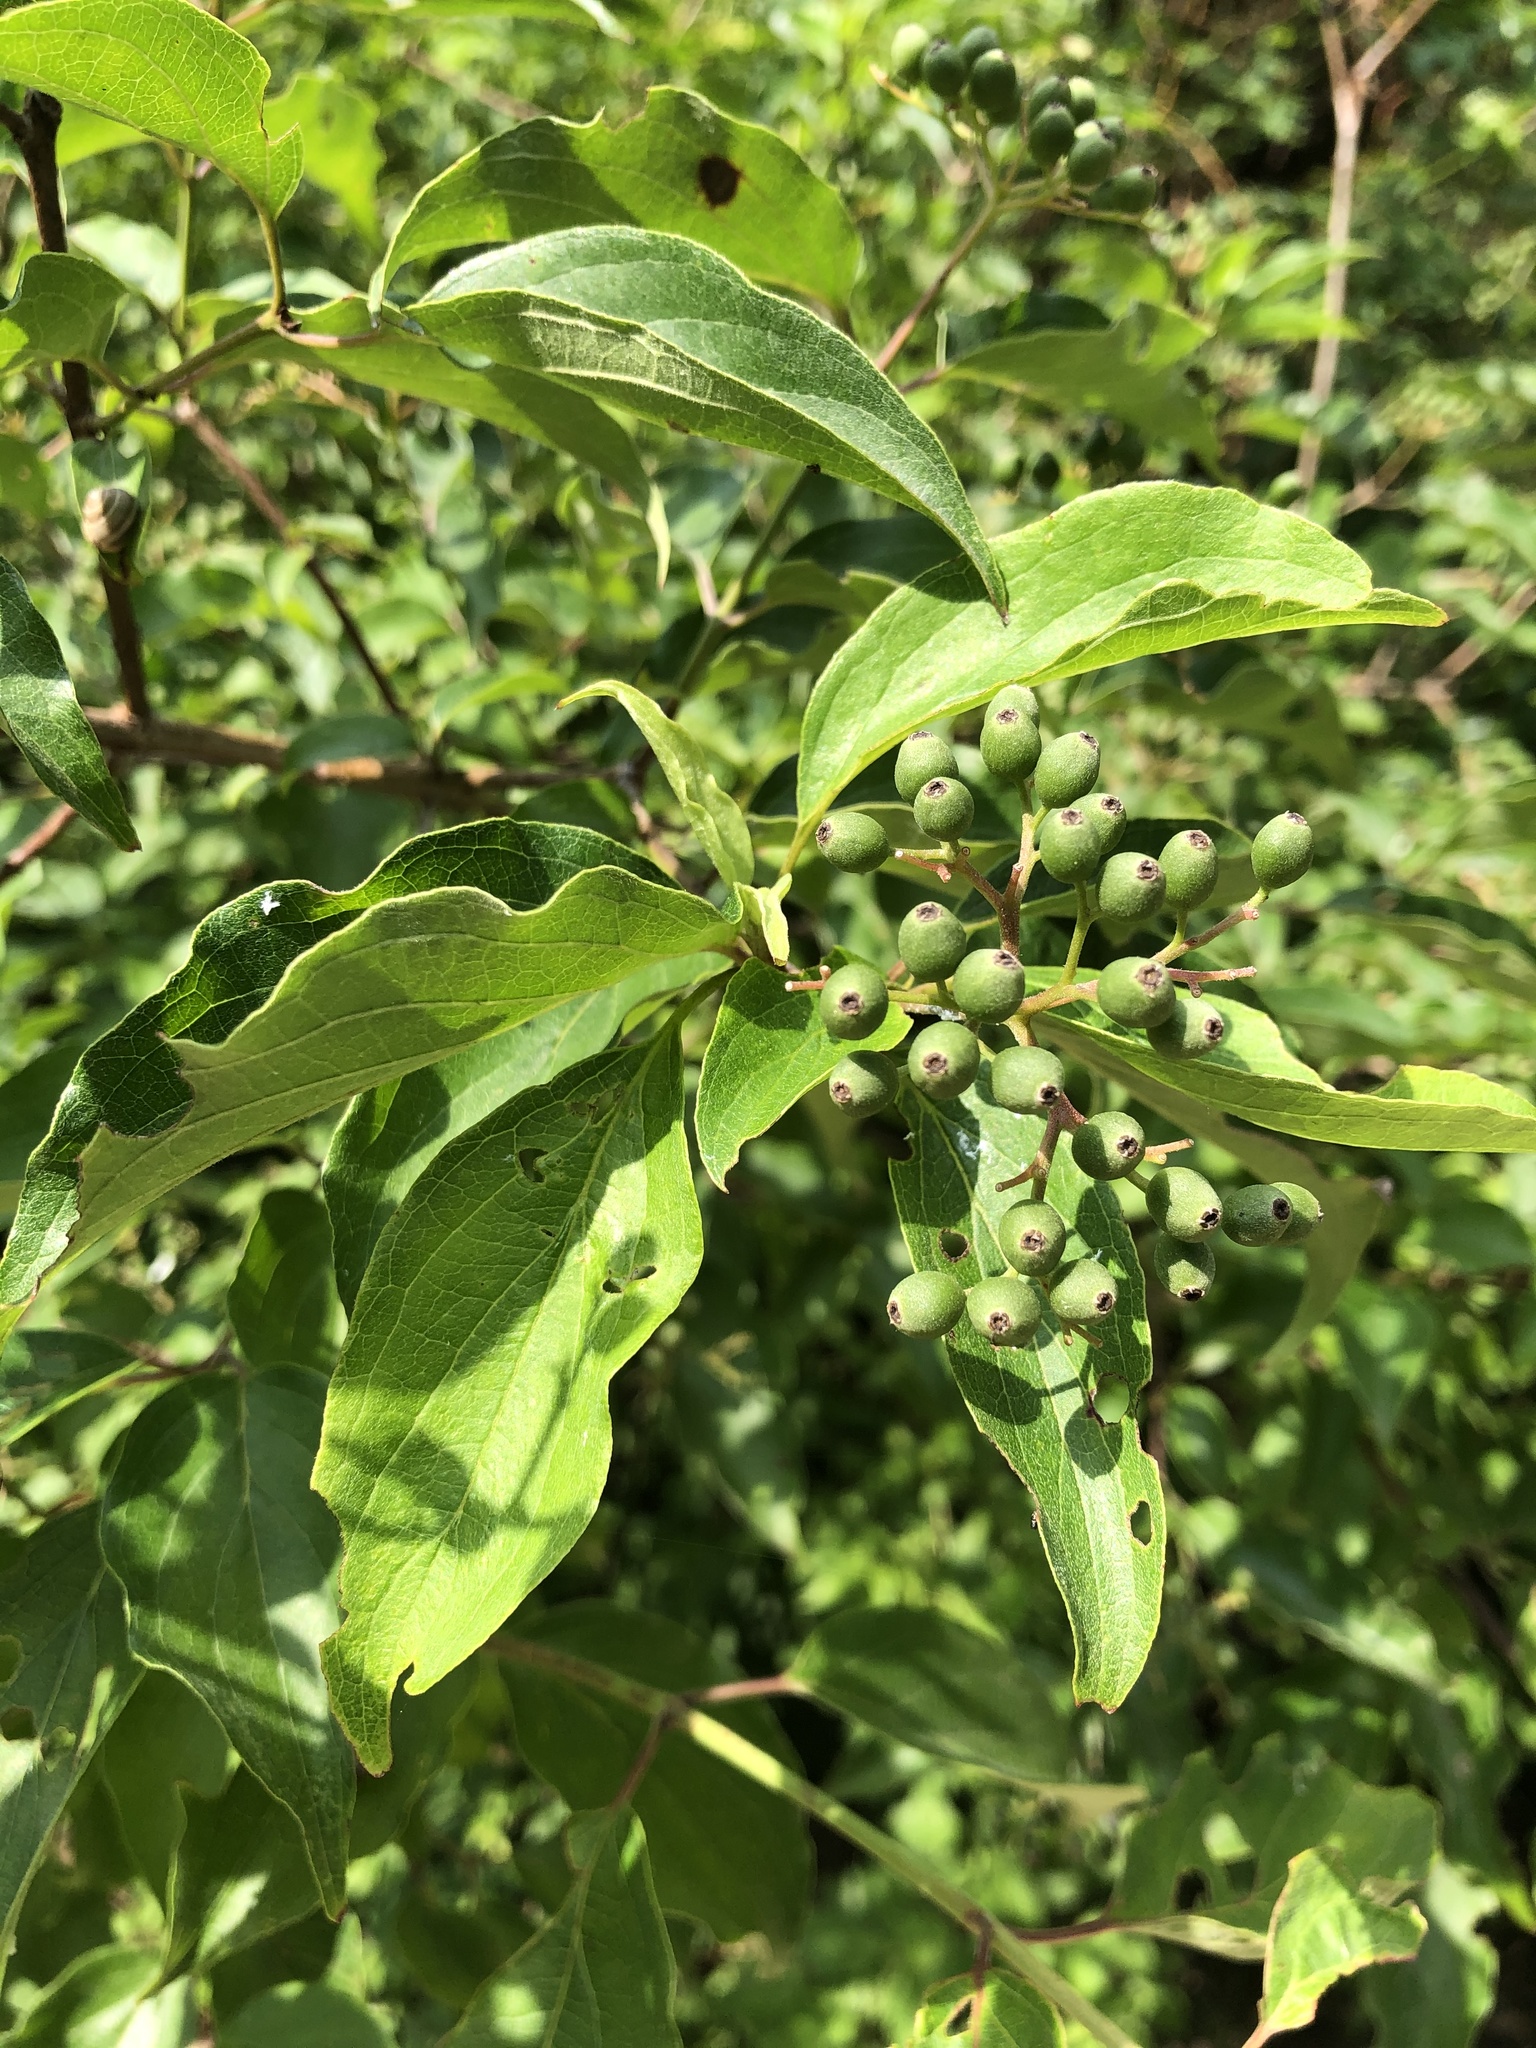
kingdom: Plantae
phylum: Tracheophyta
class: Magnoliopsida
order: Cornales
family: Cornaceae
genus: Cornus
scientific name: Cornus drummondii
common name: Rough-leaf dogwood
